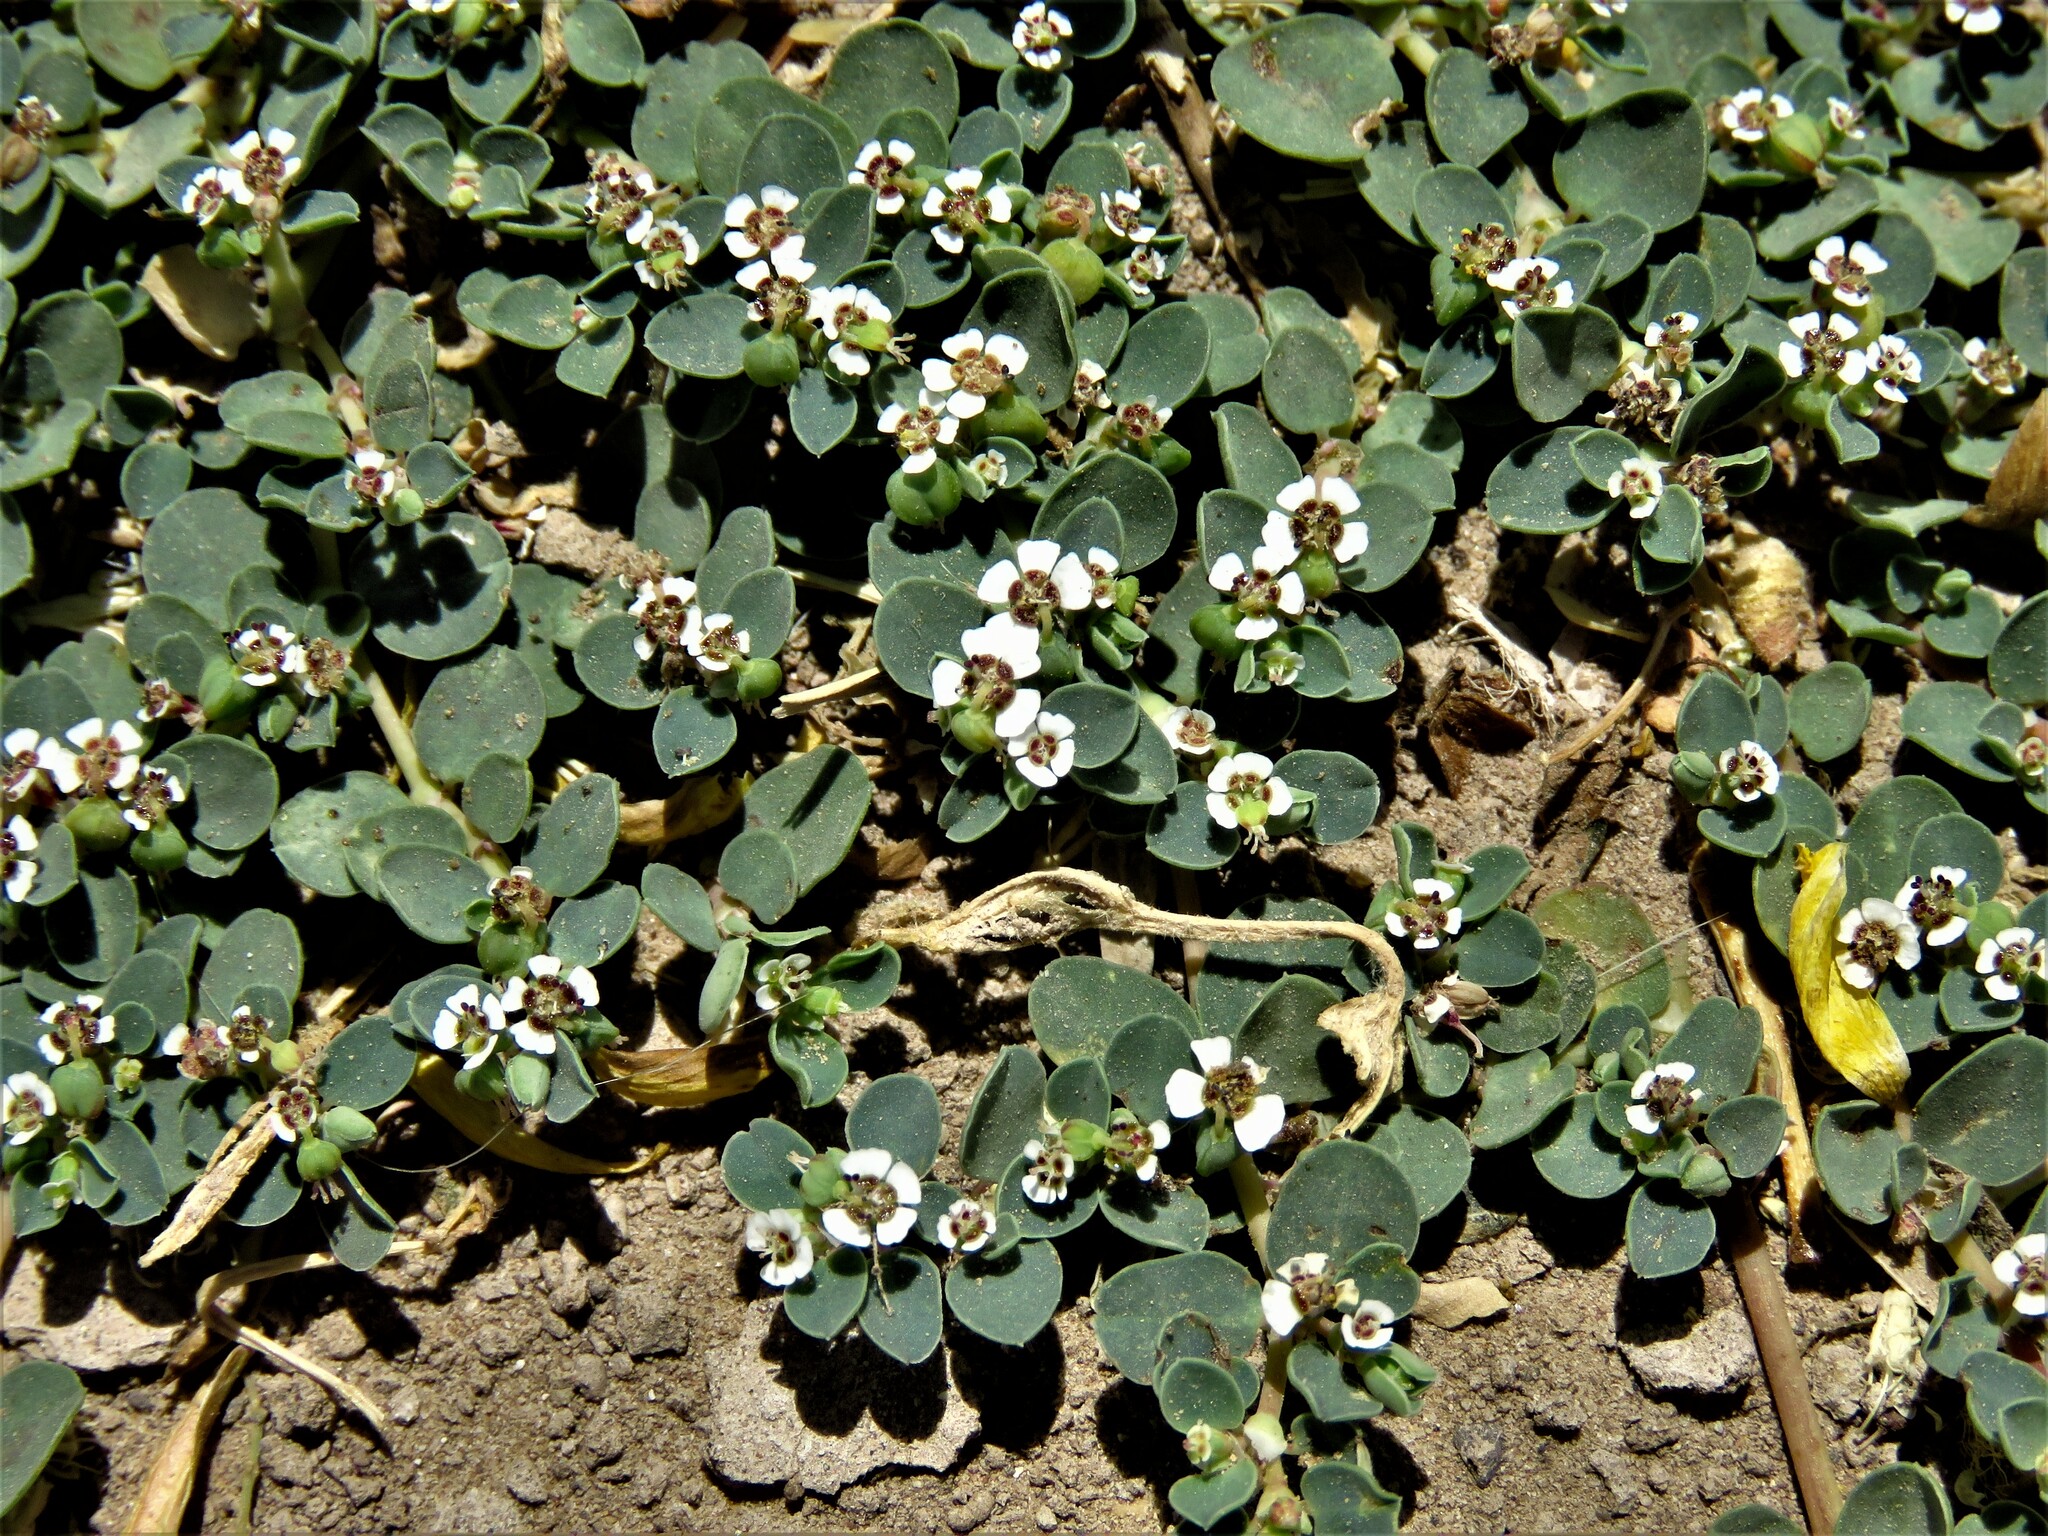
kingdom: Plantae
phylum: Tracheophyta
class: Magnoliopsida
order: Malpighiales
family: Euphorbiaceae
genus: Euphorbia
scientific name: Euphorbia albomarginata
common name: Whitemargin sandmat
